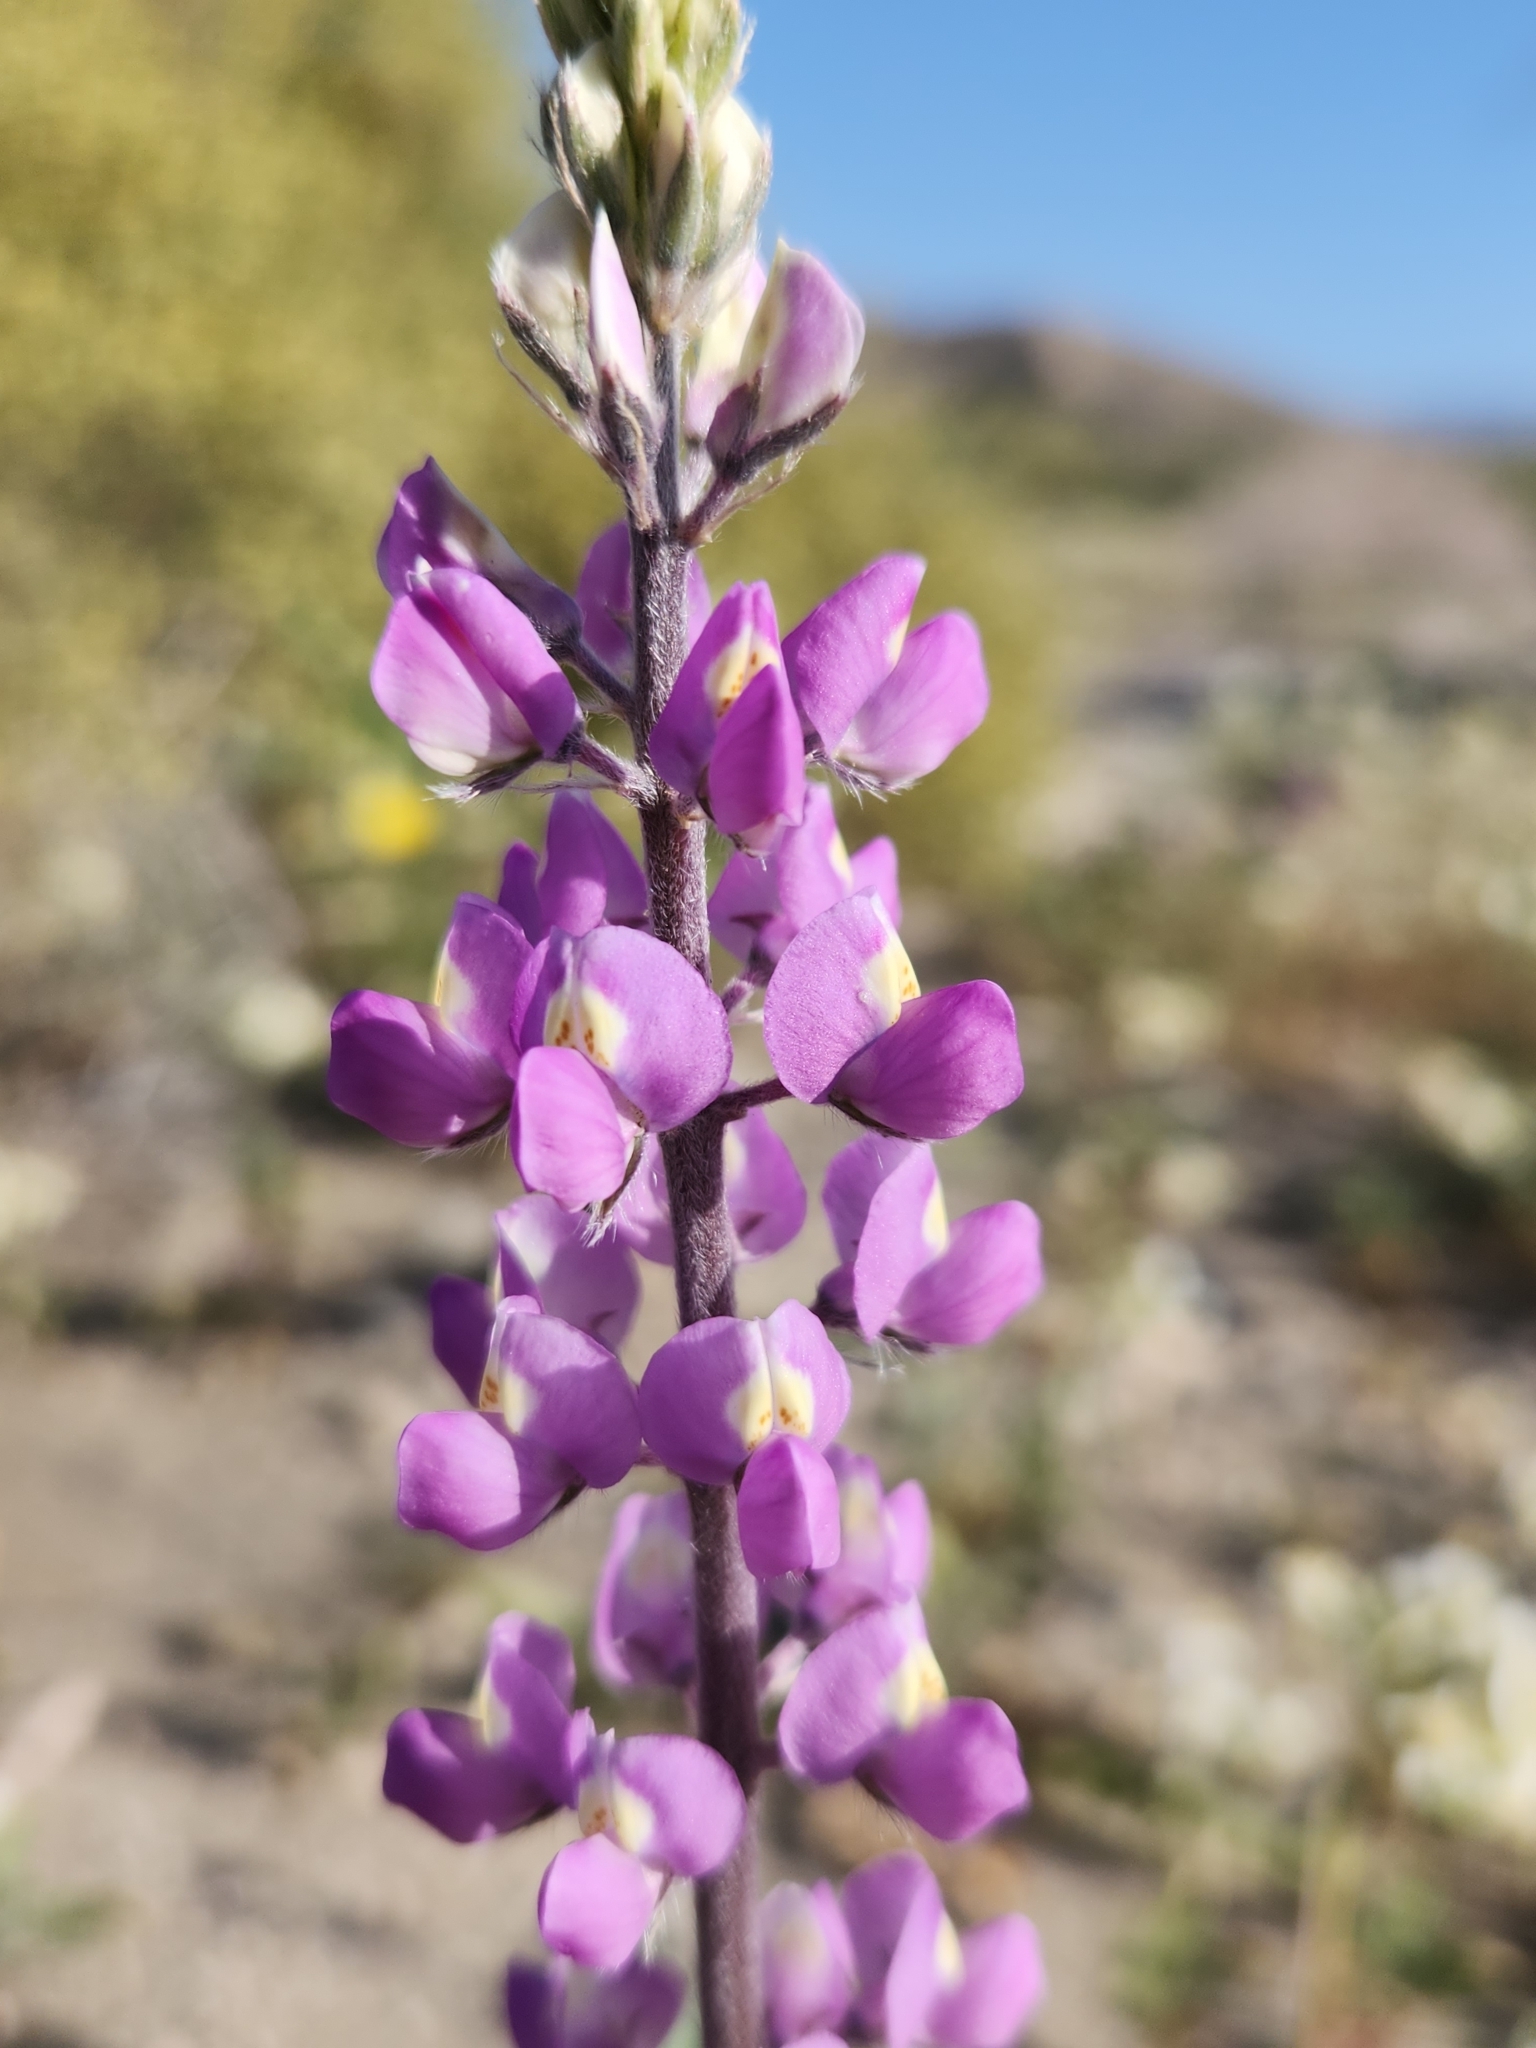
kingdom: Plantae
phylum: Tracheophyta
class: Magnoliopsida
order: Fabales
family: Fabaceae
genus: Lupinus
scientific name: Lupinus arizonicus
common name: Arizona lupine
